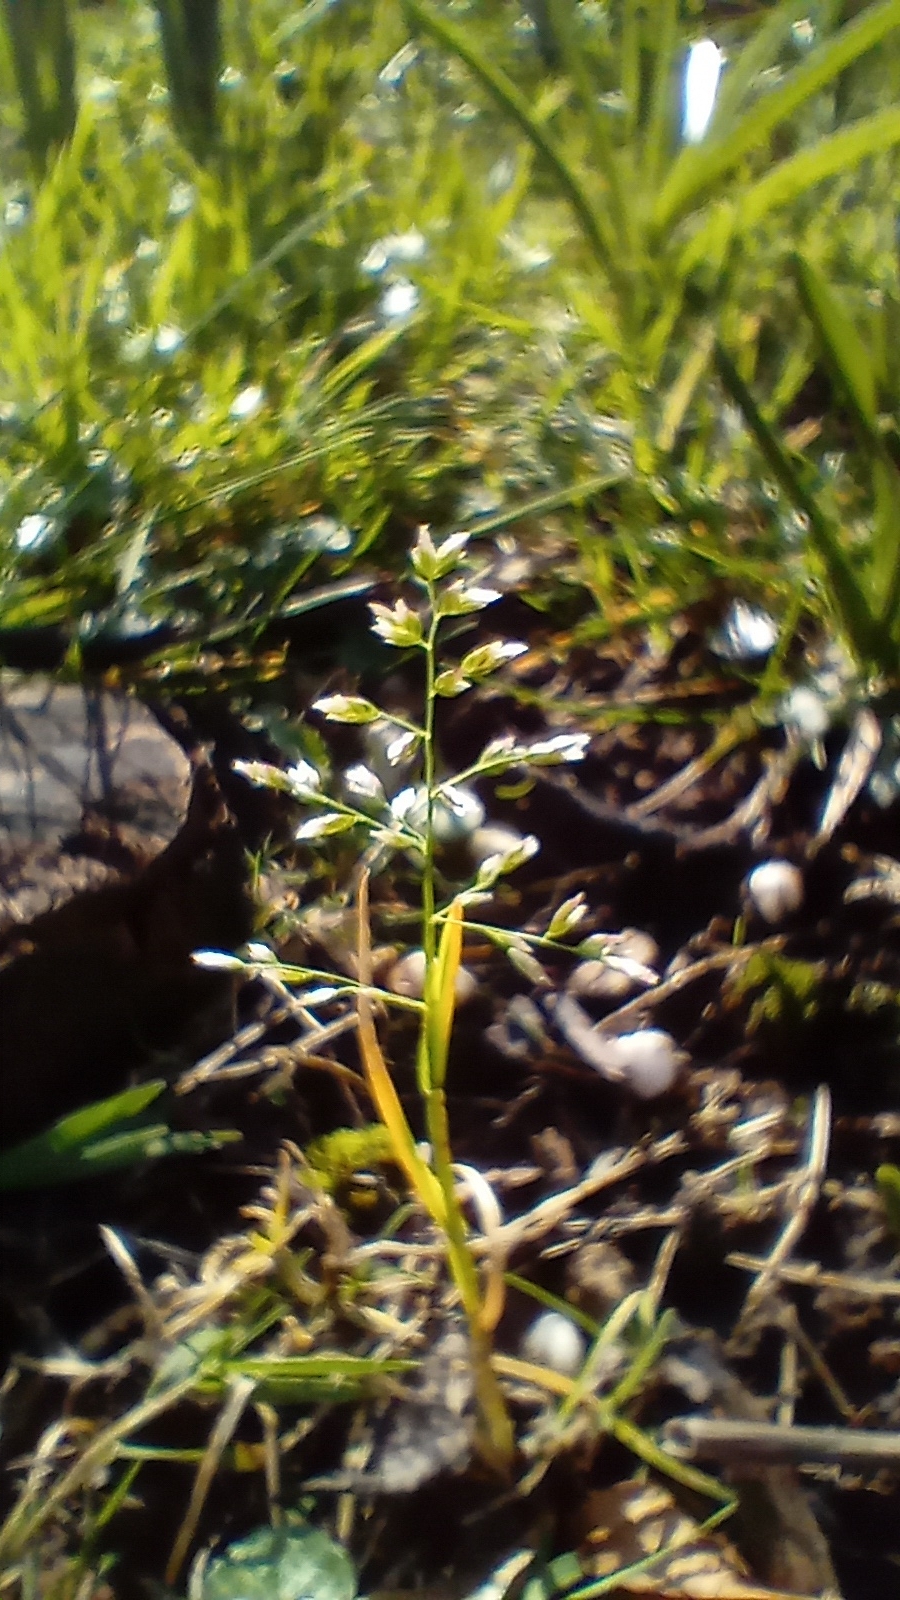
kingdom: Plantae
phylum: Tracheophyta
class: Liliopsida
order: Poales
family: Poaceae
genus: Poa
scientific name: Poa annua
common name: Annual bluegrass
